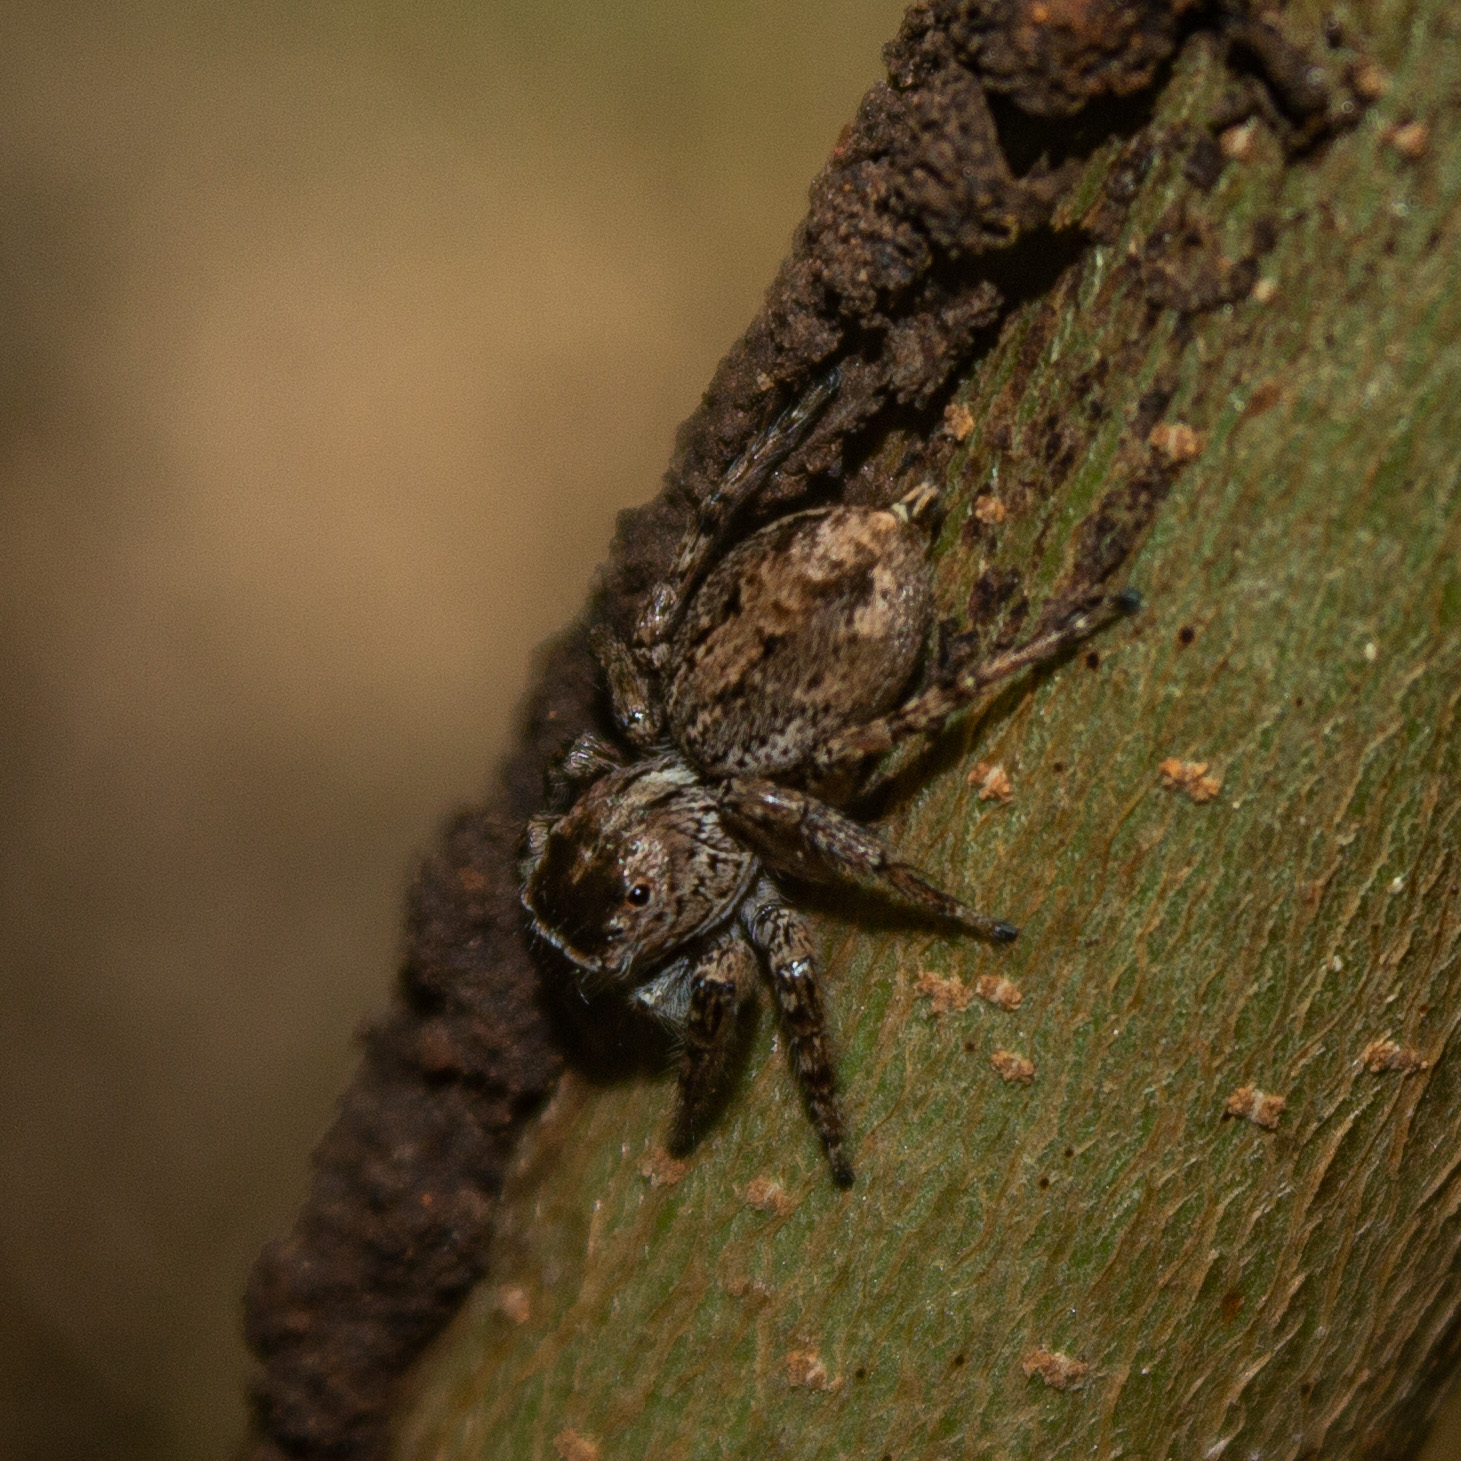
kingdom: Animalia
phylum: Arthropoda
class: Arachnida
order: Araneae
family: Salticidae
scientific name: Salticidae
